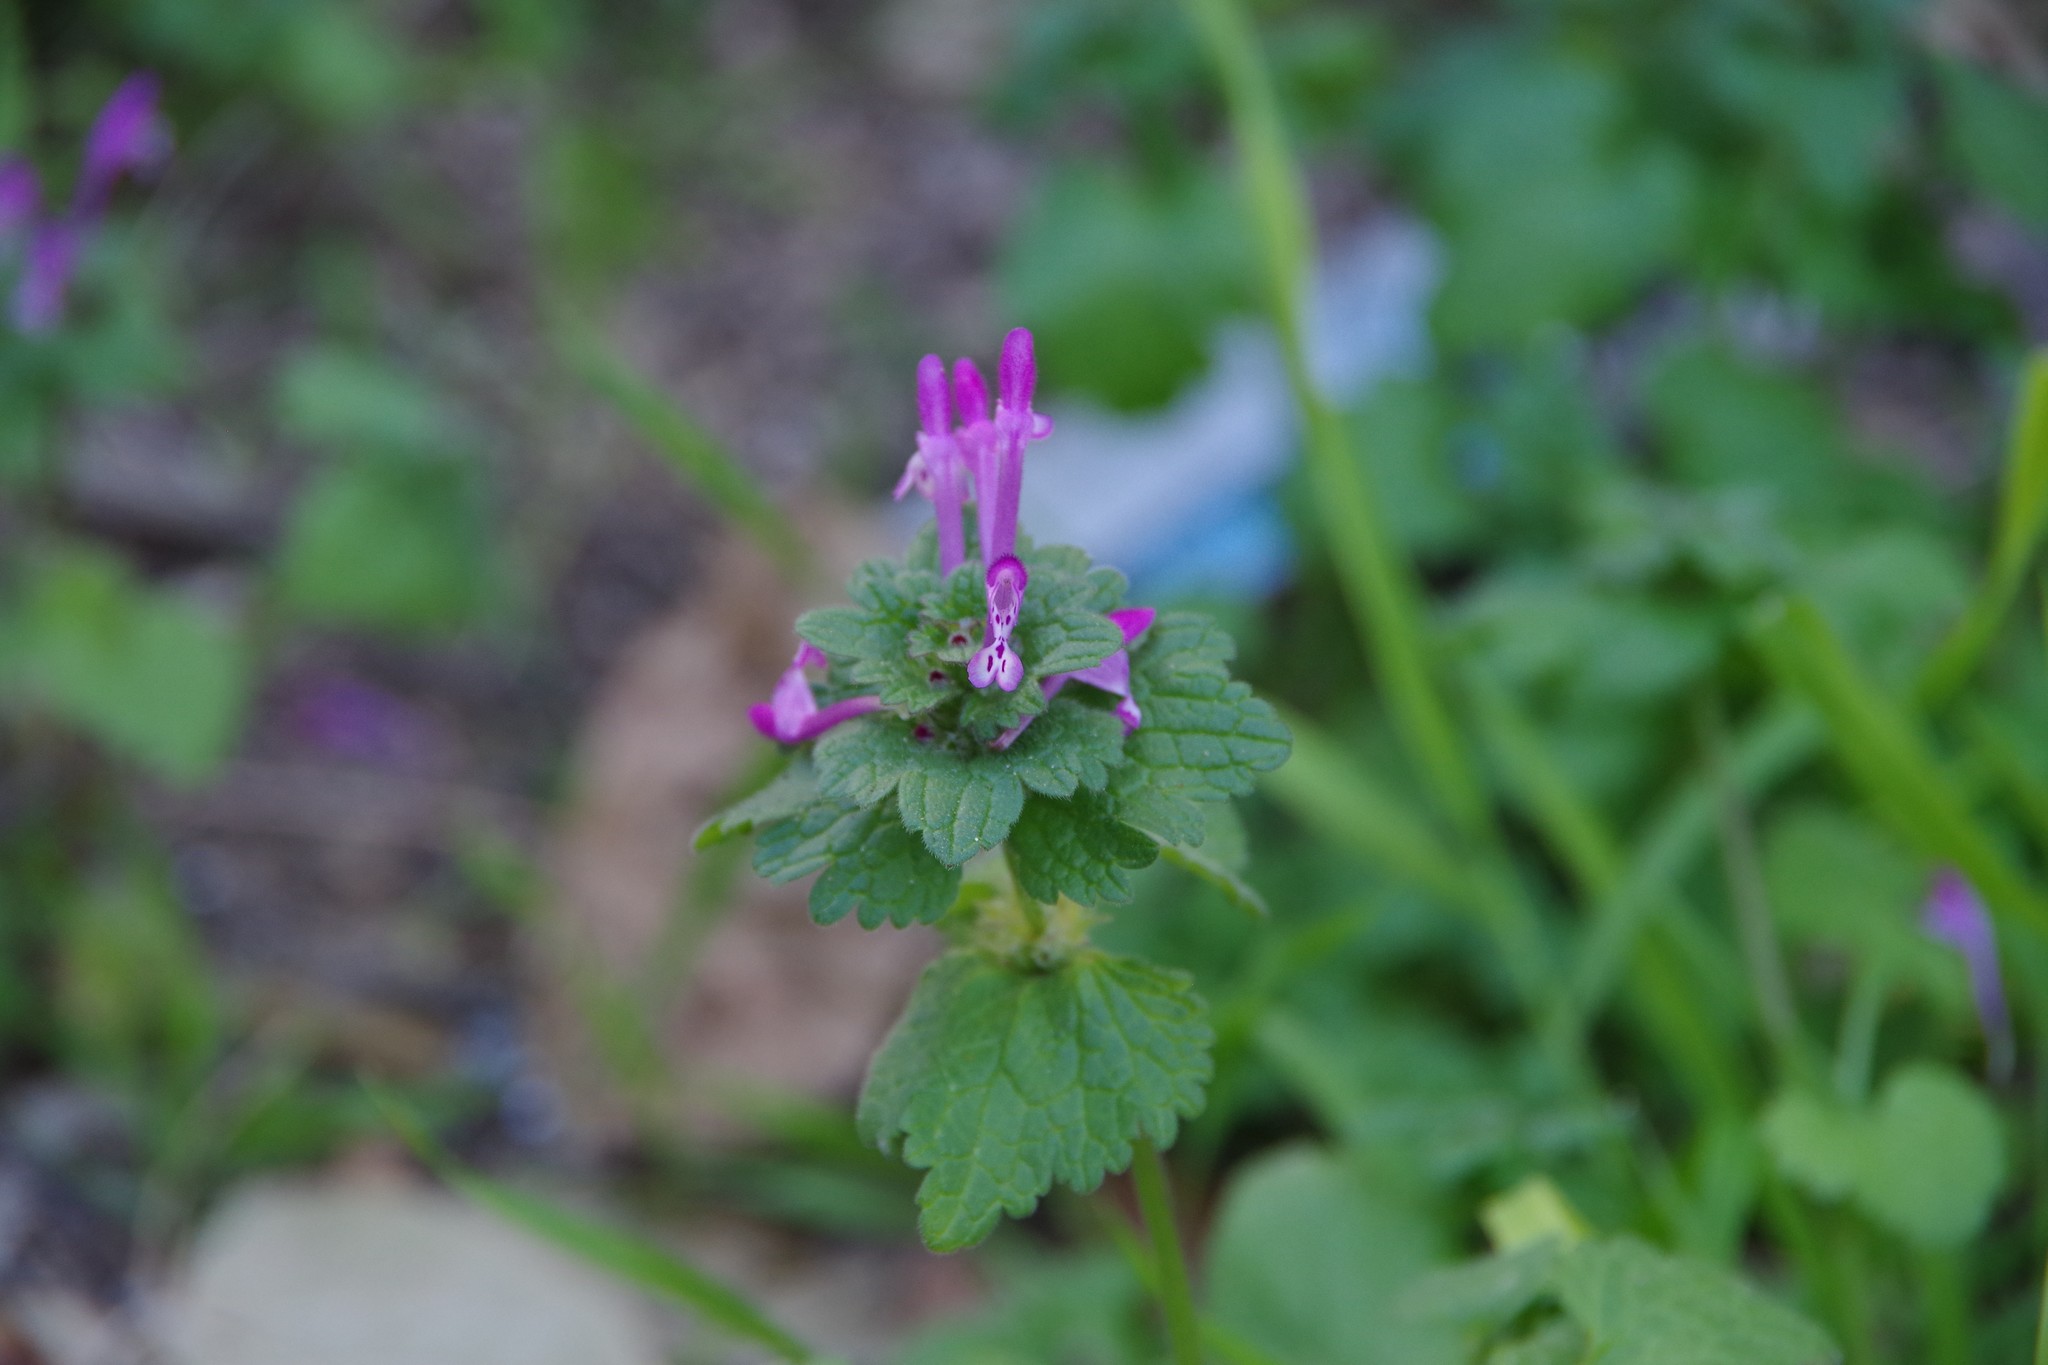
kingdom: Plantae
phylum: Tracheophyta
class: Magnoliopsida
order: Lamiales
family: Lamiaceae
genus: Lamium
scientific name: Lamium amplexicaule
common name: Henbit dead-nettle
